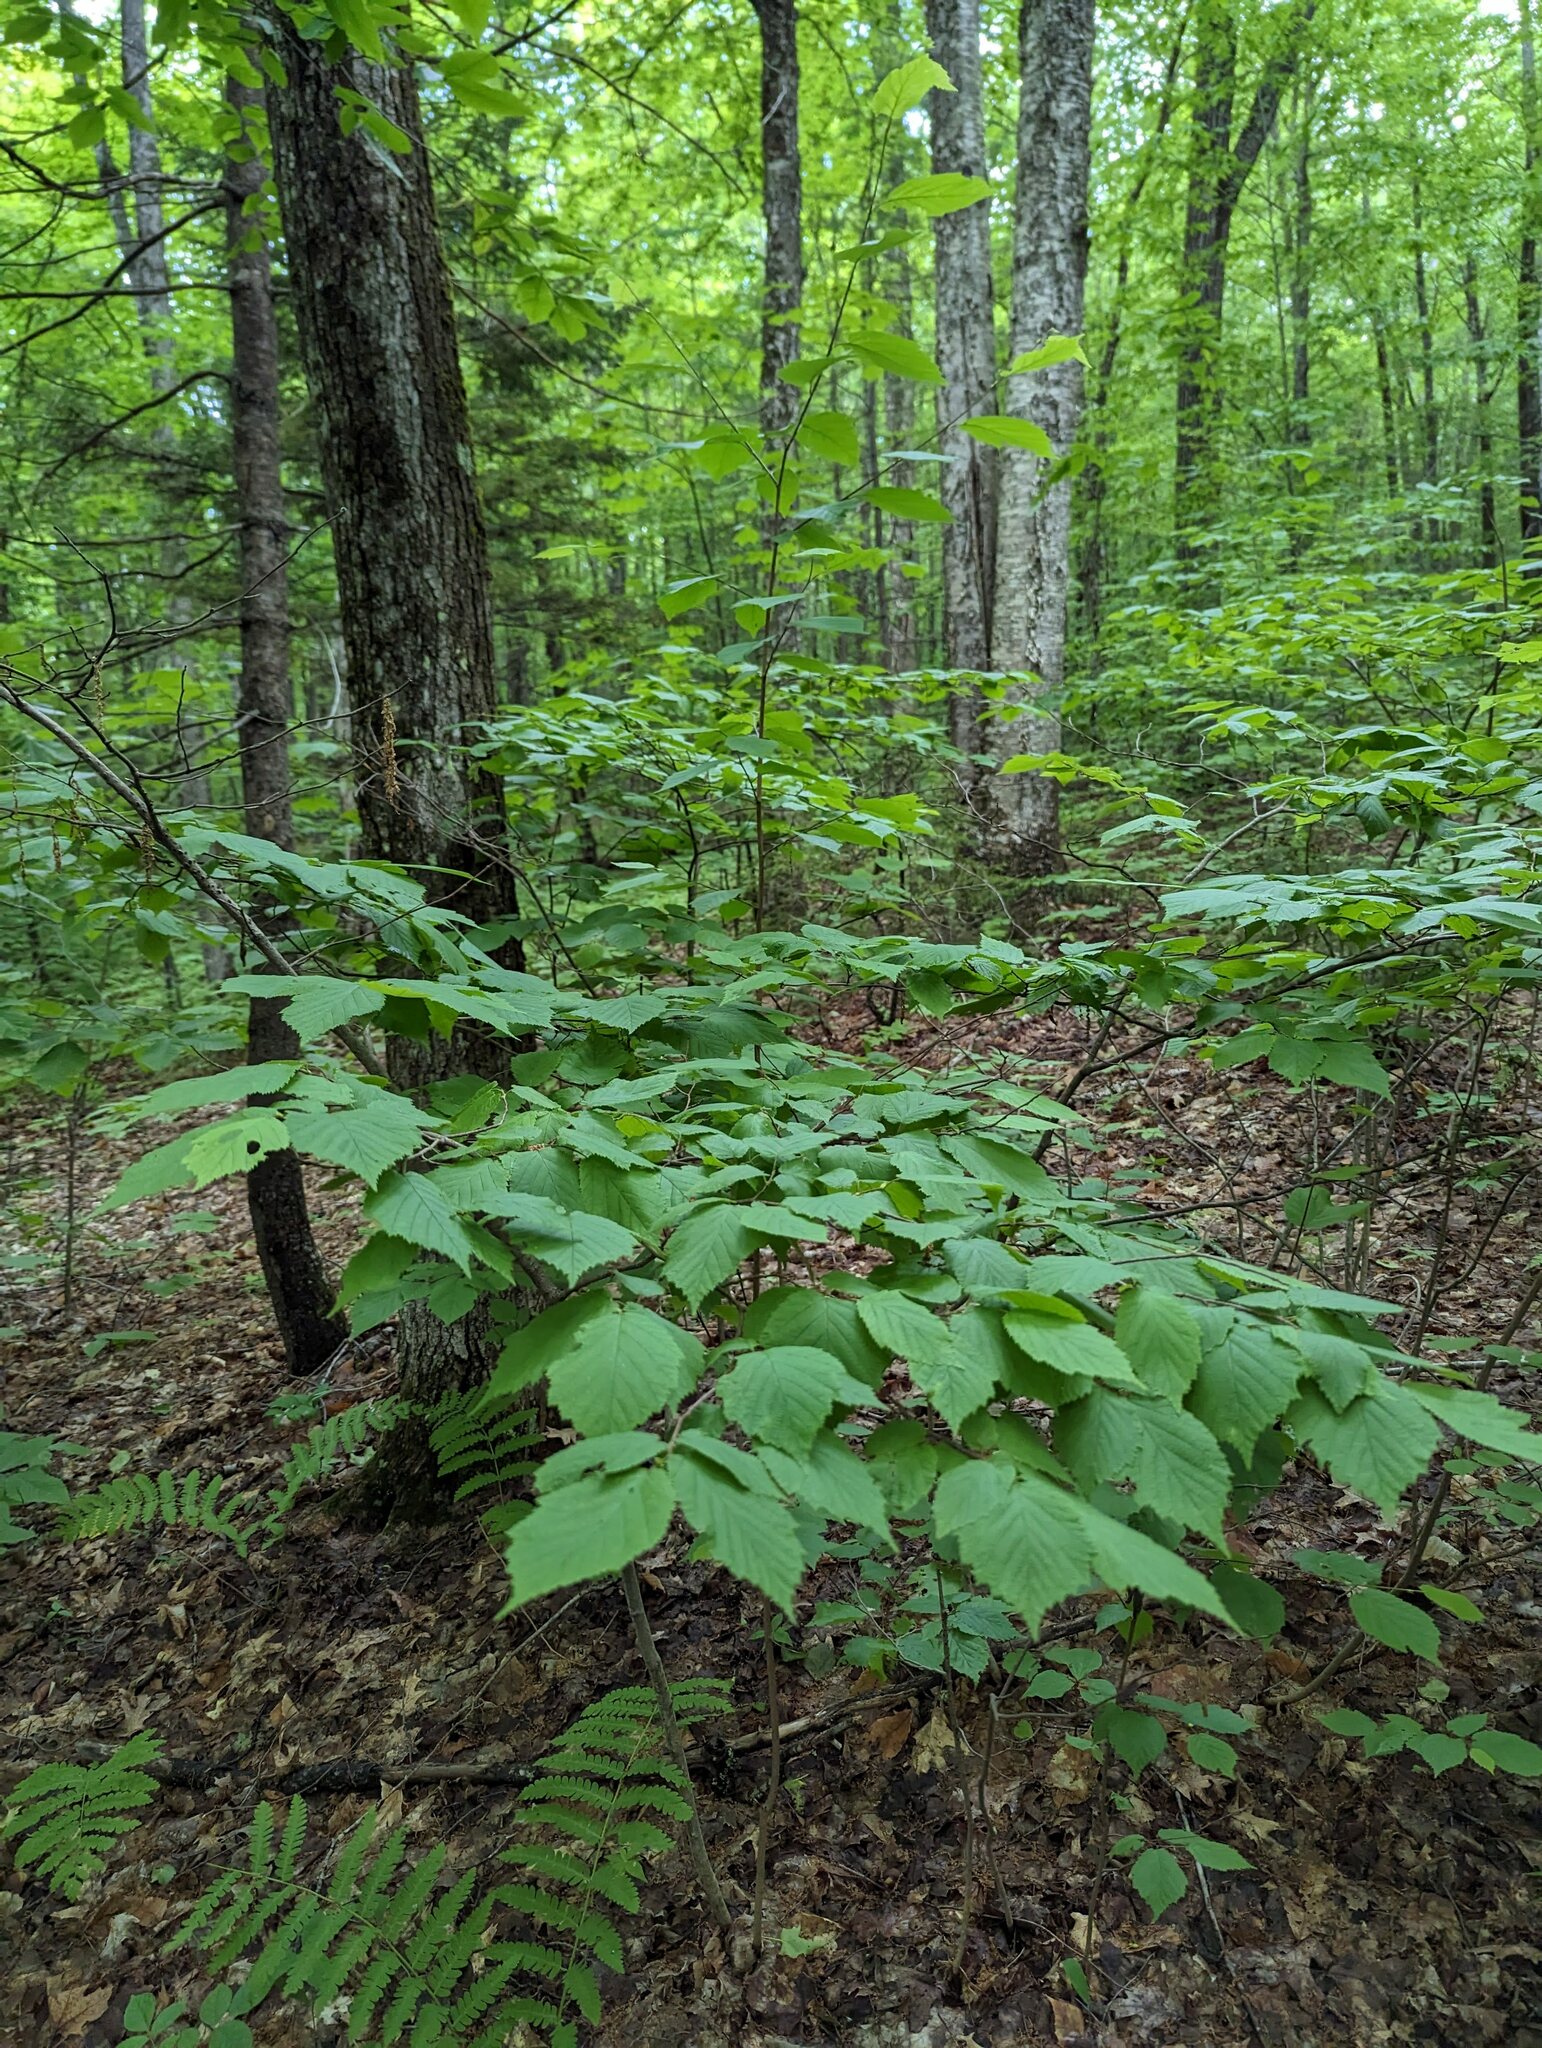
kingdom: Plantae
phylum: Tracheophyta
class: Magnoliopsida
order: Fagales
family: Betulaceae
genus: Corylus
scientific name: Corylus cornuta
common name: Beaked hazel
